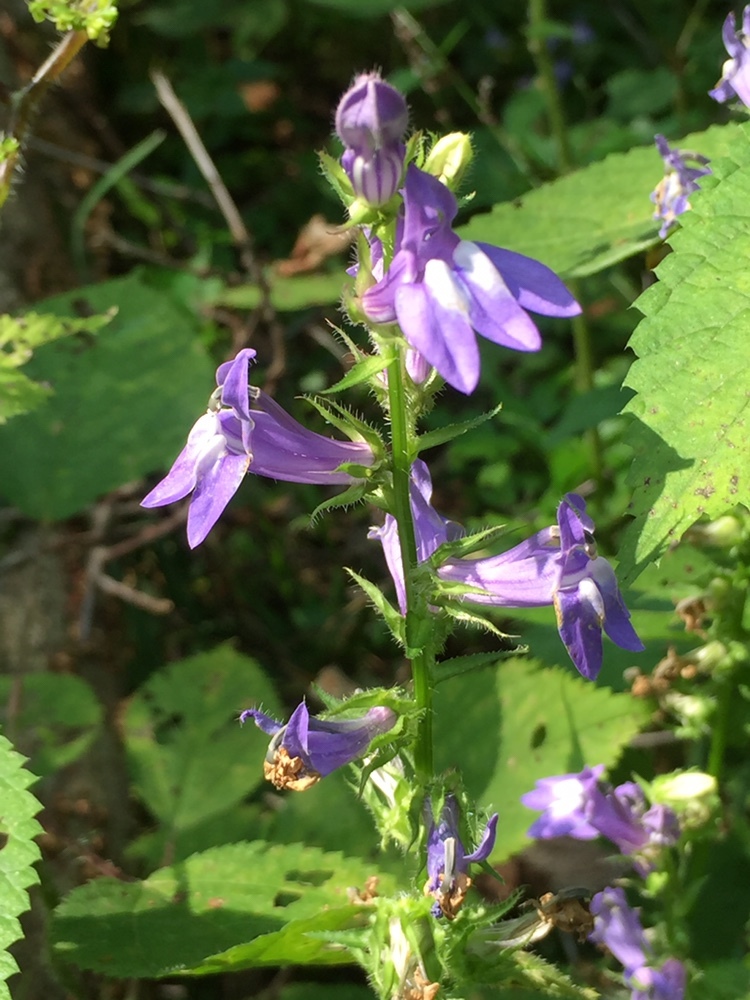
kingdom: Plantae
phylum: Tracheophyta
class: Magnoliopsida
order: Asterales
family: Campanulaceae
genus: Lobelia
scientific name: Lobelia siphilitica
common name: Great lobelia
